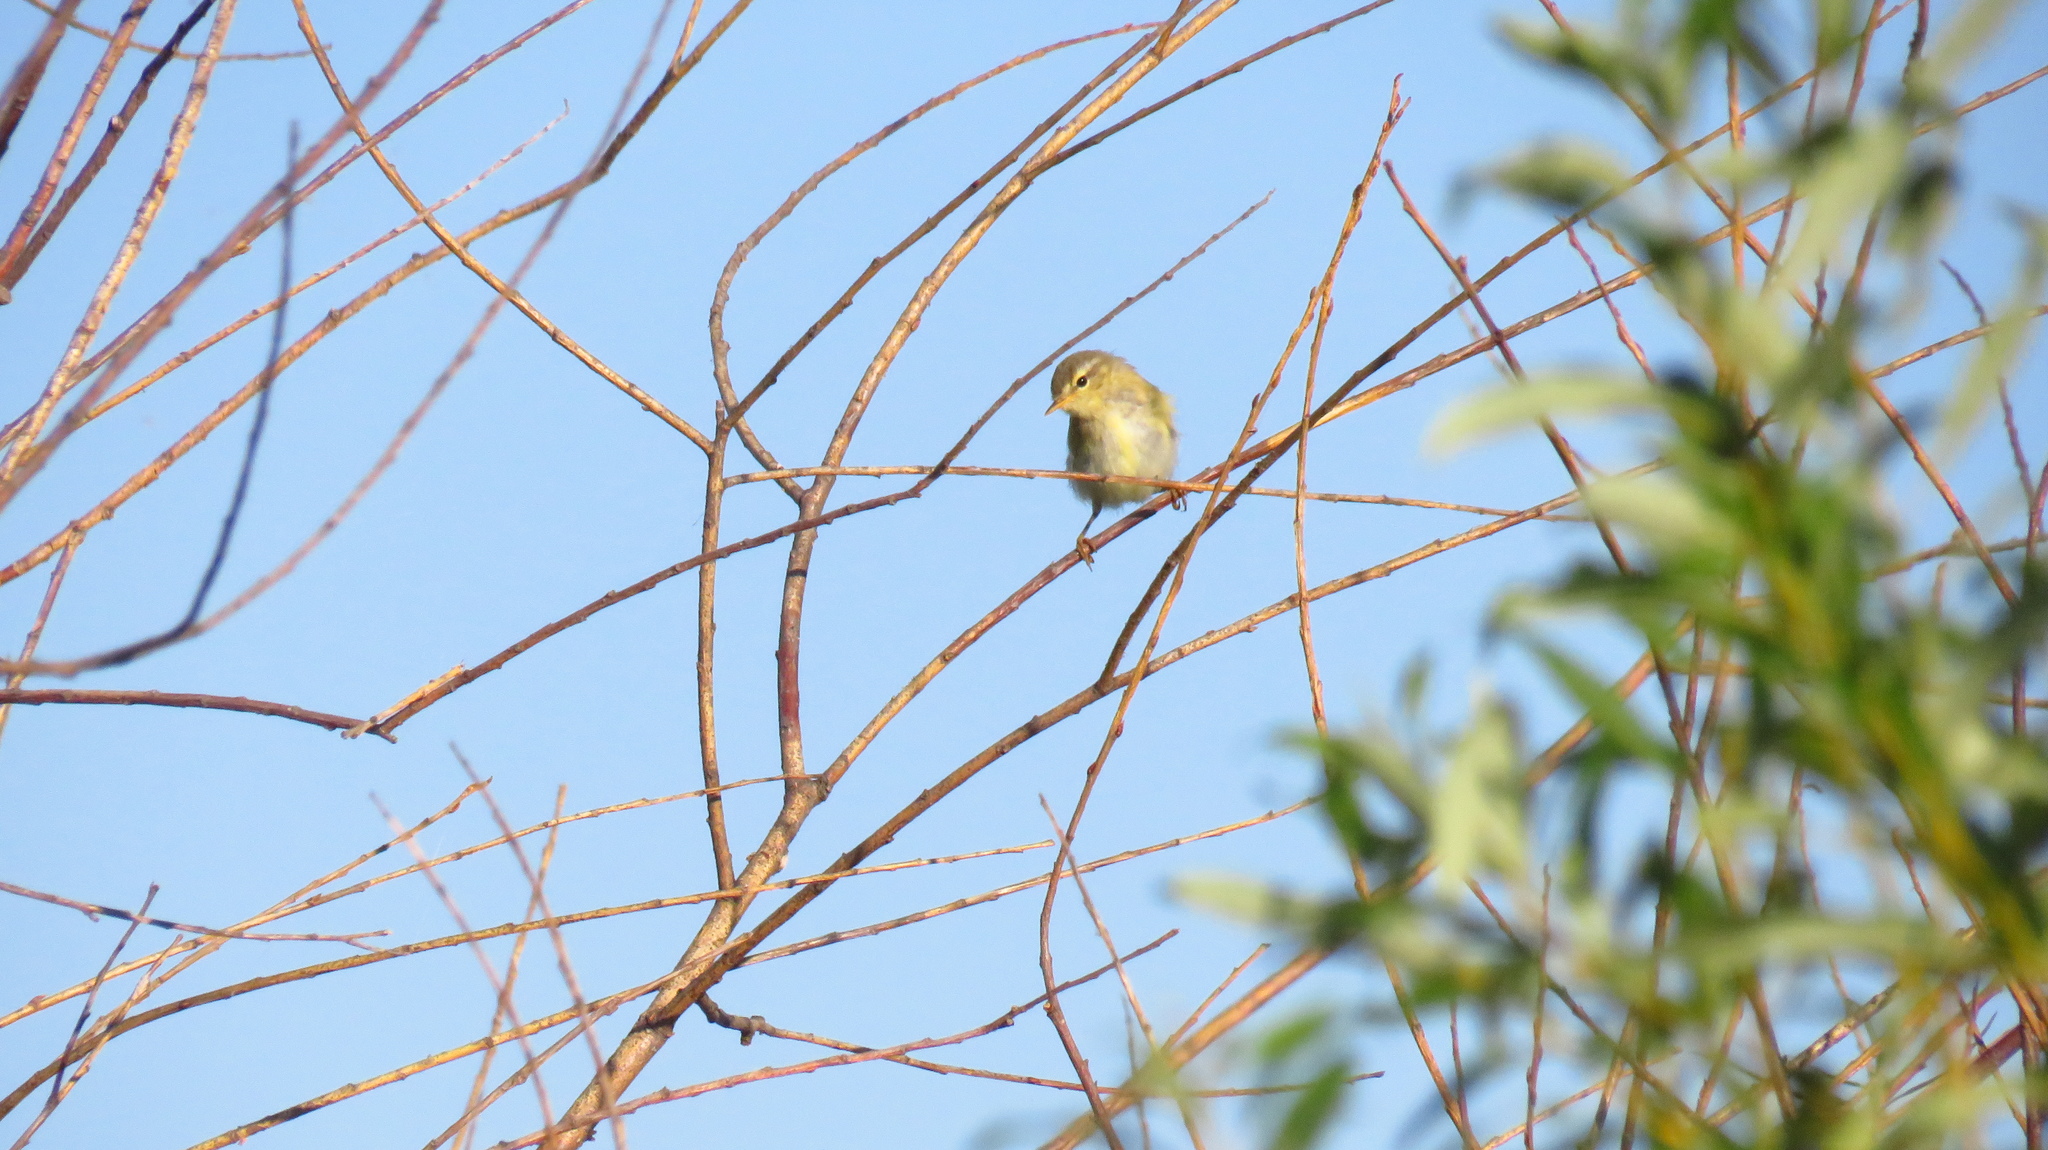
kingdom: Animalia
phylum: Chordata
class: Aves
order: Passeriformes
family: Phylloscopidae
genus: Phylloscopus
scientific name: Phylloscopus trochilus
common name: Willow warbler
